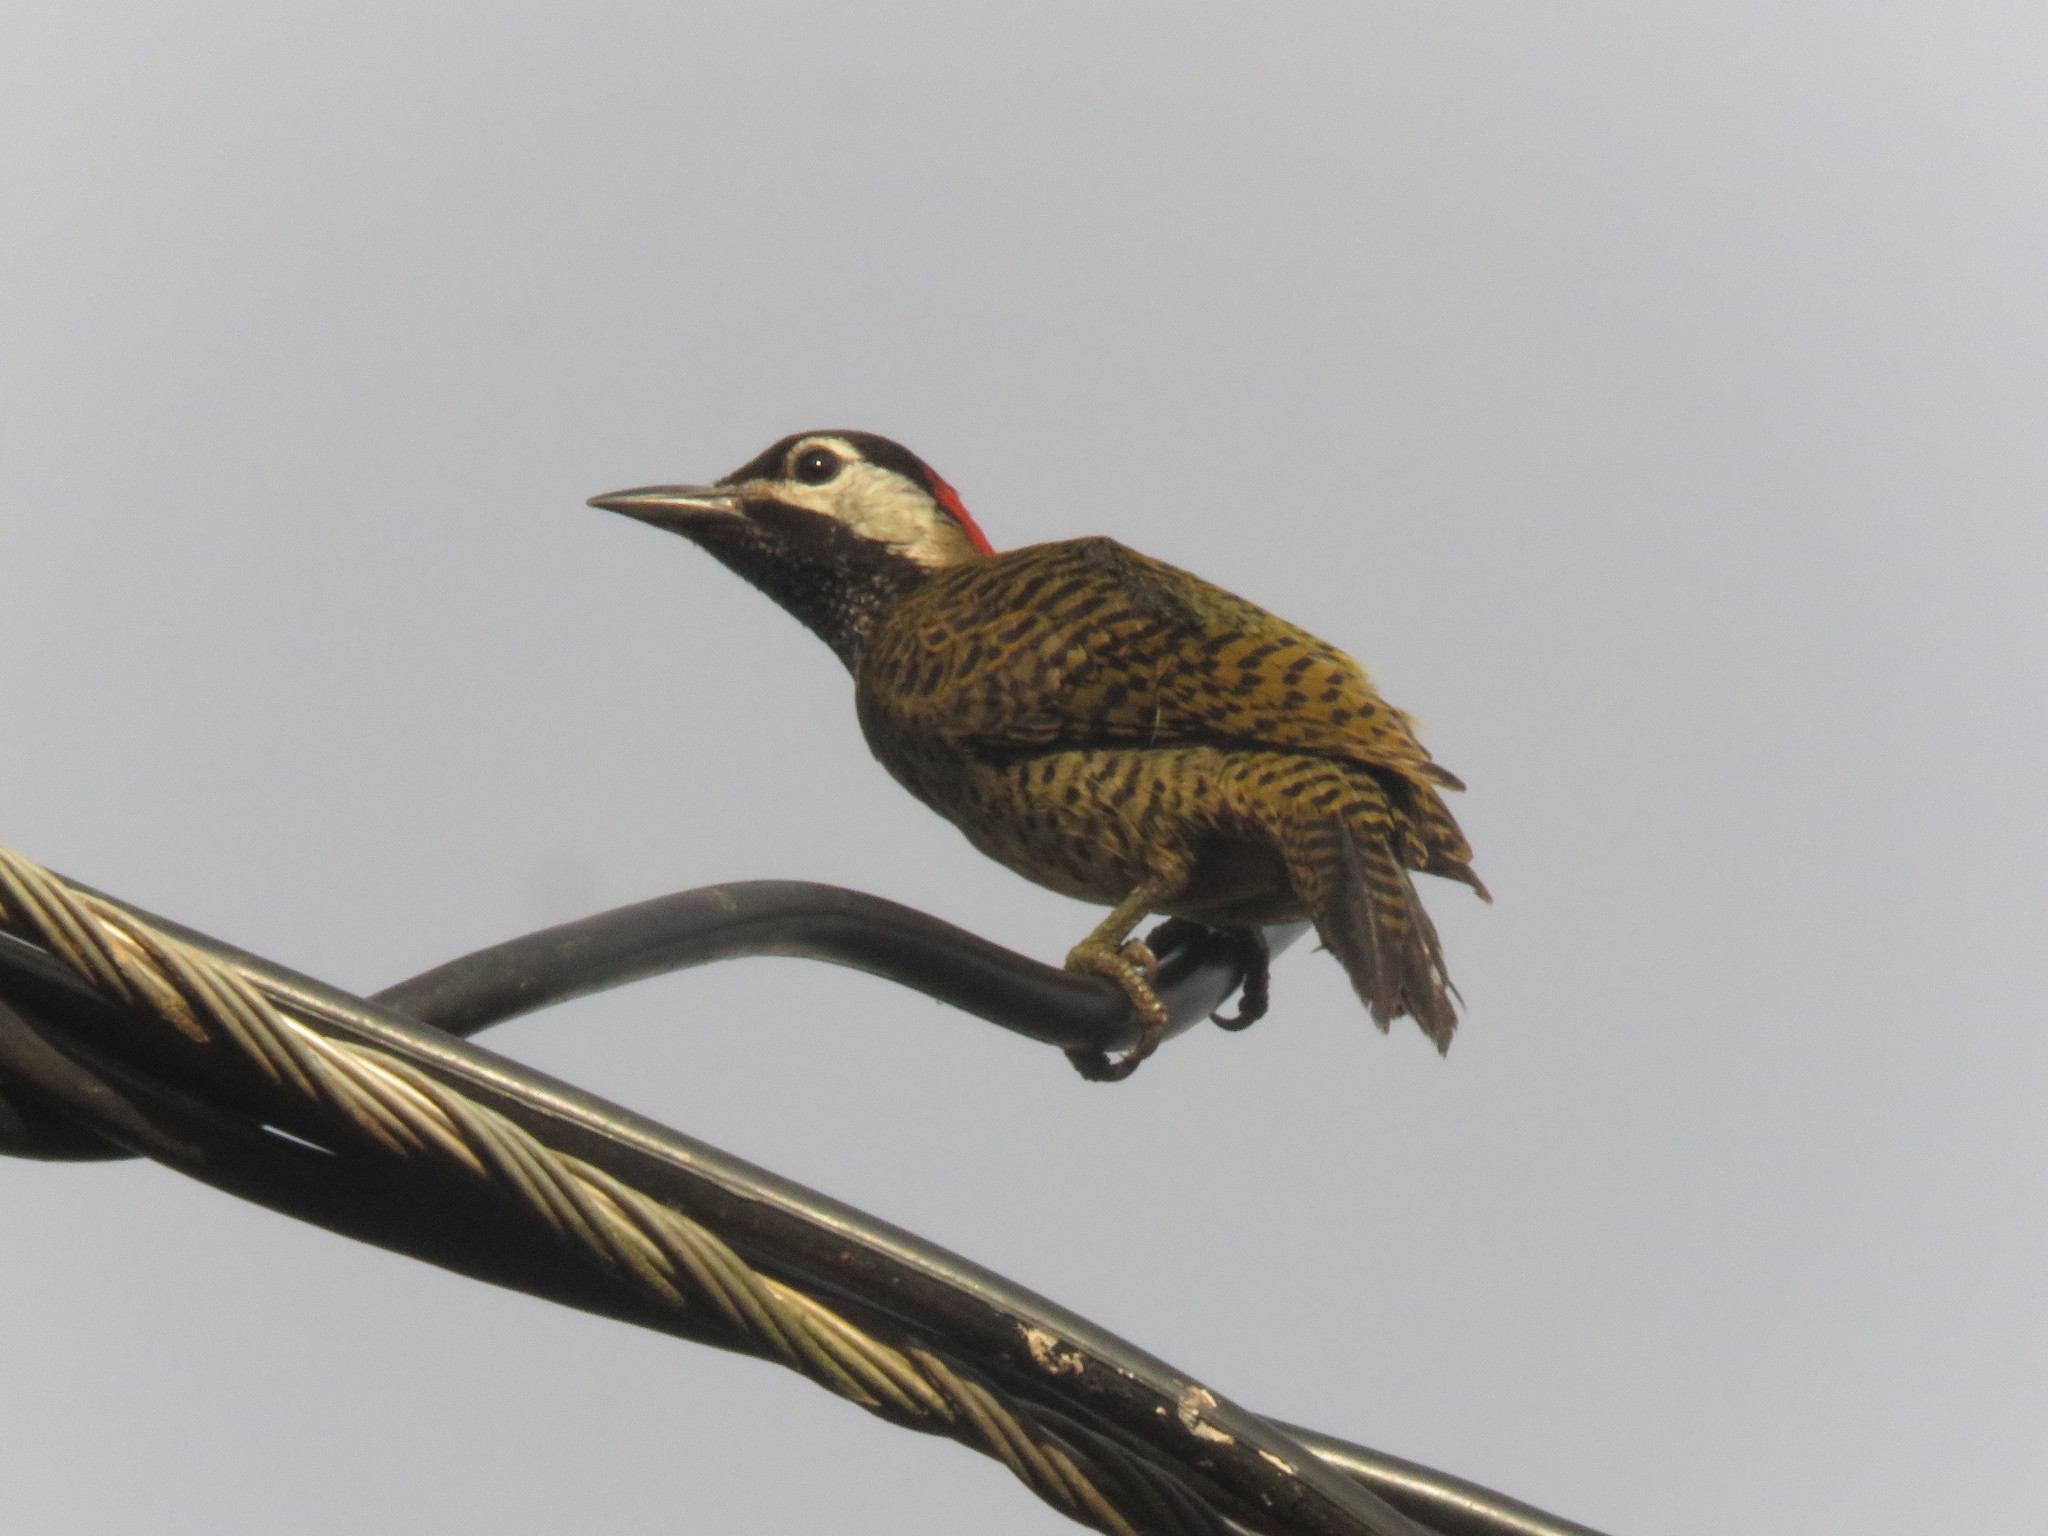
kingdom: Animalia
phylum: Chordata
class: Aves
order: Piciformes
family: Picidae
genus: Colaptes
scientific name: Colaptes punctigula
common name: Spot-breasted woodpecker
